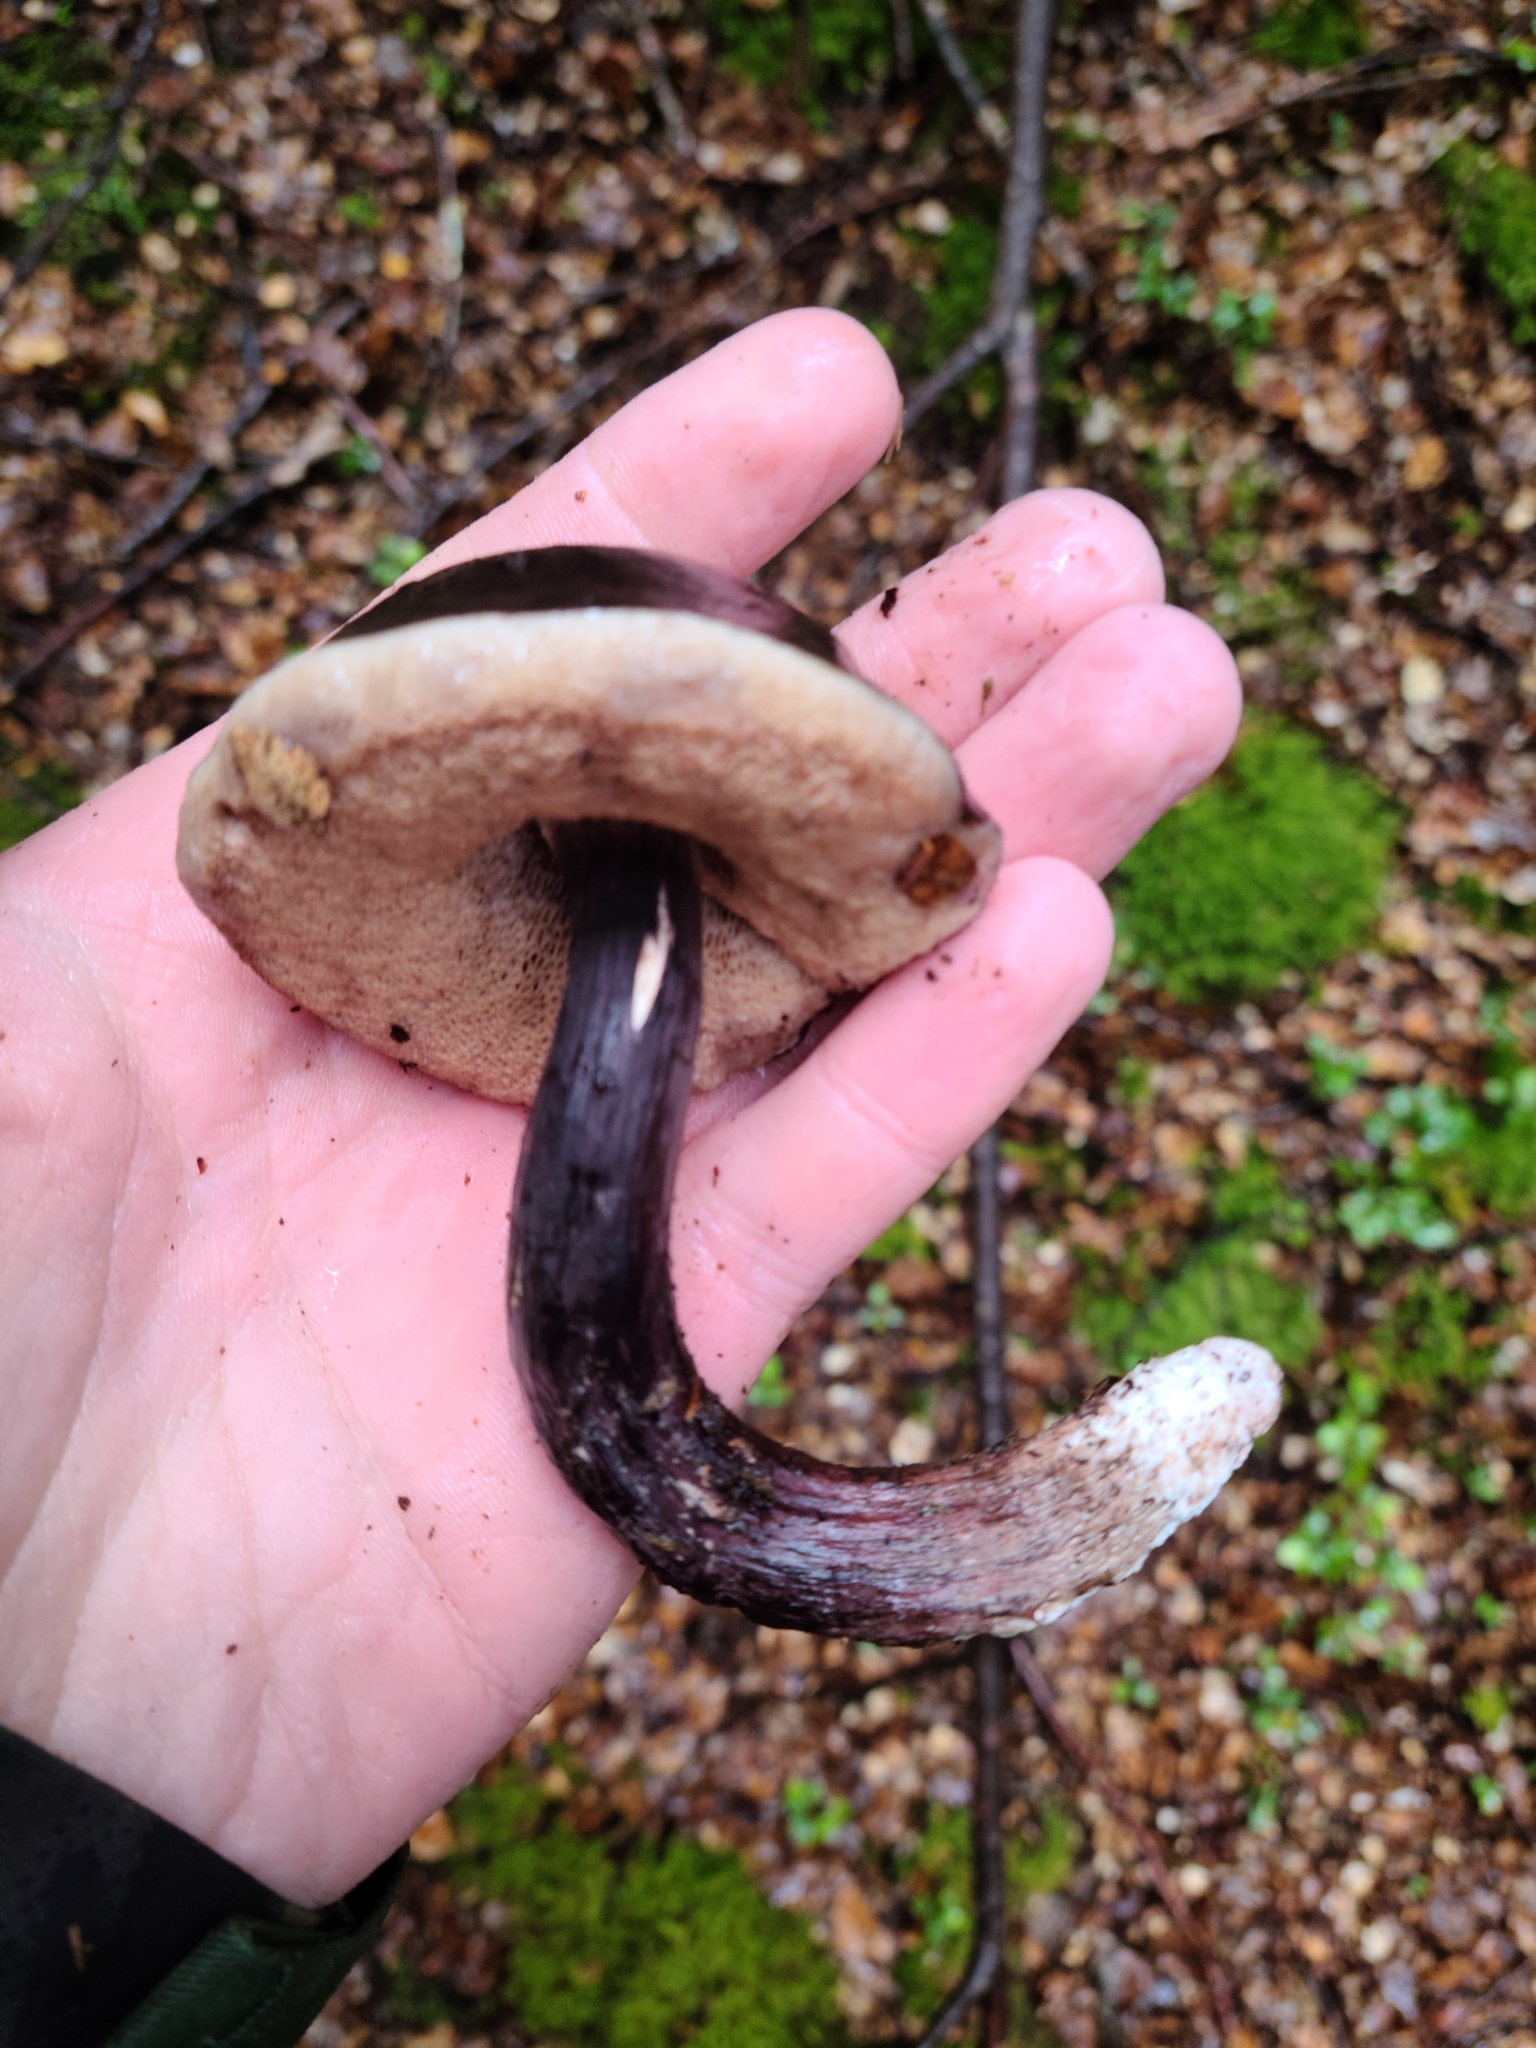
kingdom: Fungi
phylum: Basidiomycota
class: Agaricomycetes
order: Boletales
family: Boletaceae
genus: Porphyrellus
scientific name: Porphyrellus formosus
